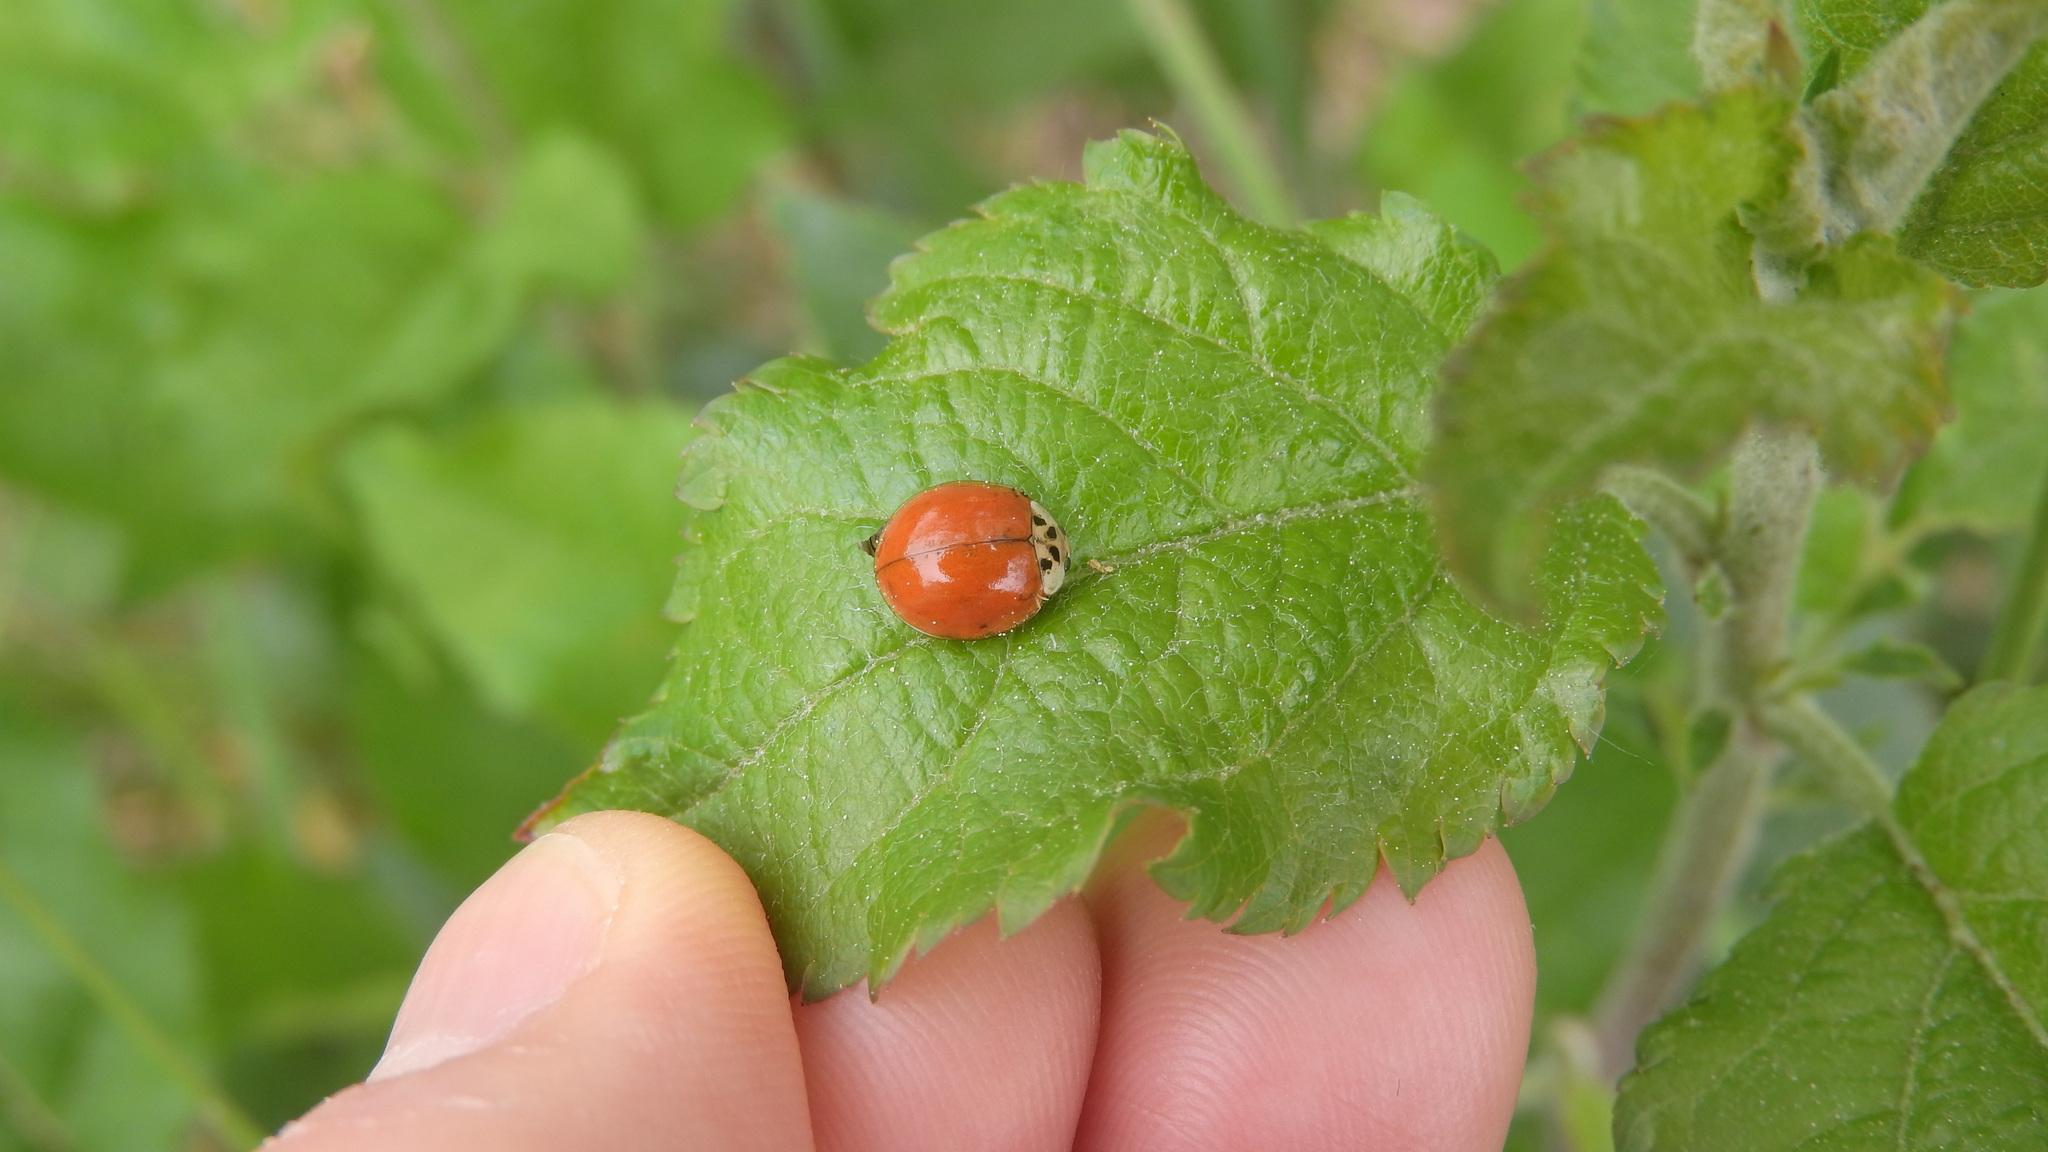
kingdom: Animalia
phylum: Arthropoda
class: Insecta
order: Coleoptera
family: Coccinellidae
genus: Harmonia
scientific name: Harmonia axyridis
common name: Harlequin ladybird
